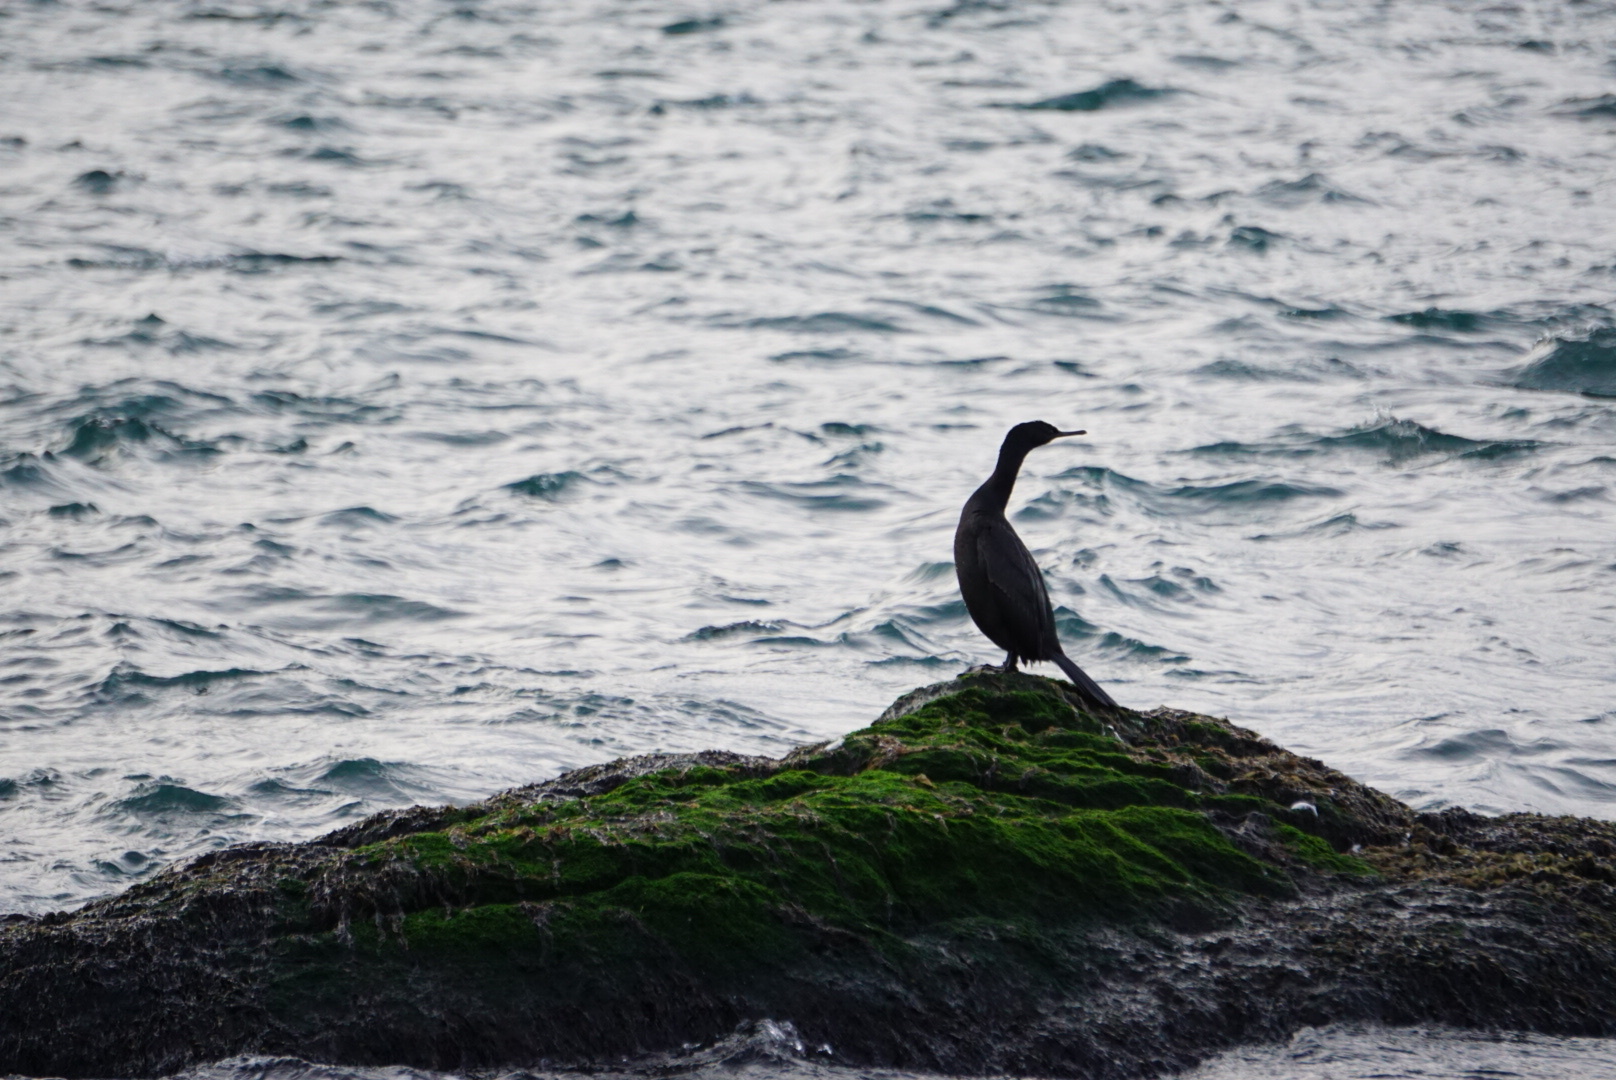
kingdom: Animalia
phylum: Chordata
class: Aves
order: Suliformes
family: Phalacrocoracidae
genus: Phalacrocorax
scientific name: Phalacrocorax pelagicus
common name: Pelagic cormorant
